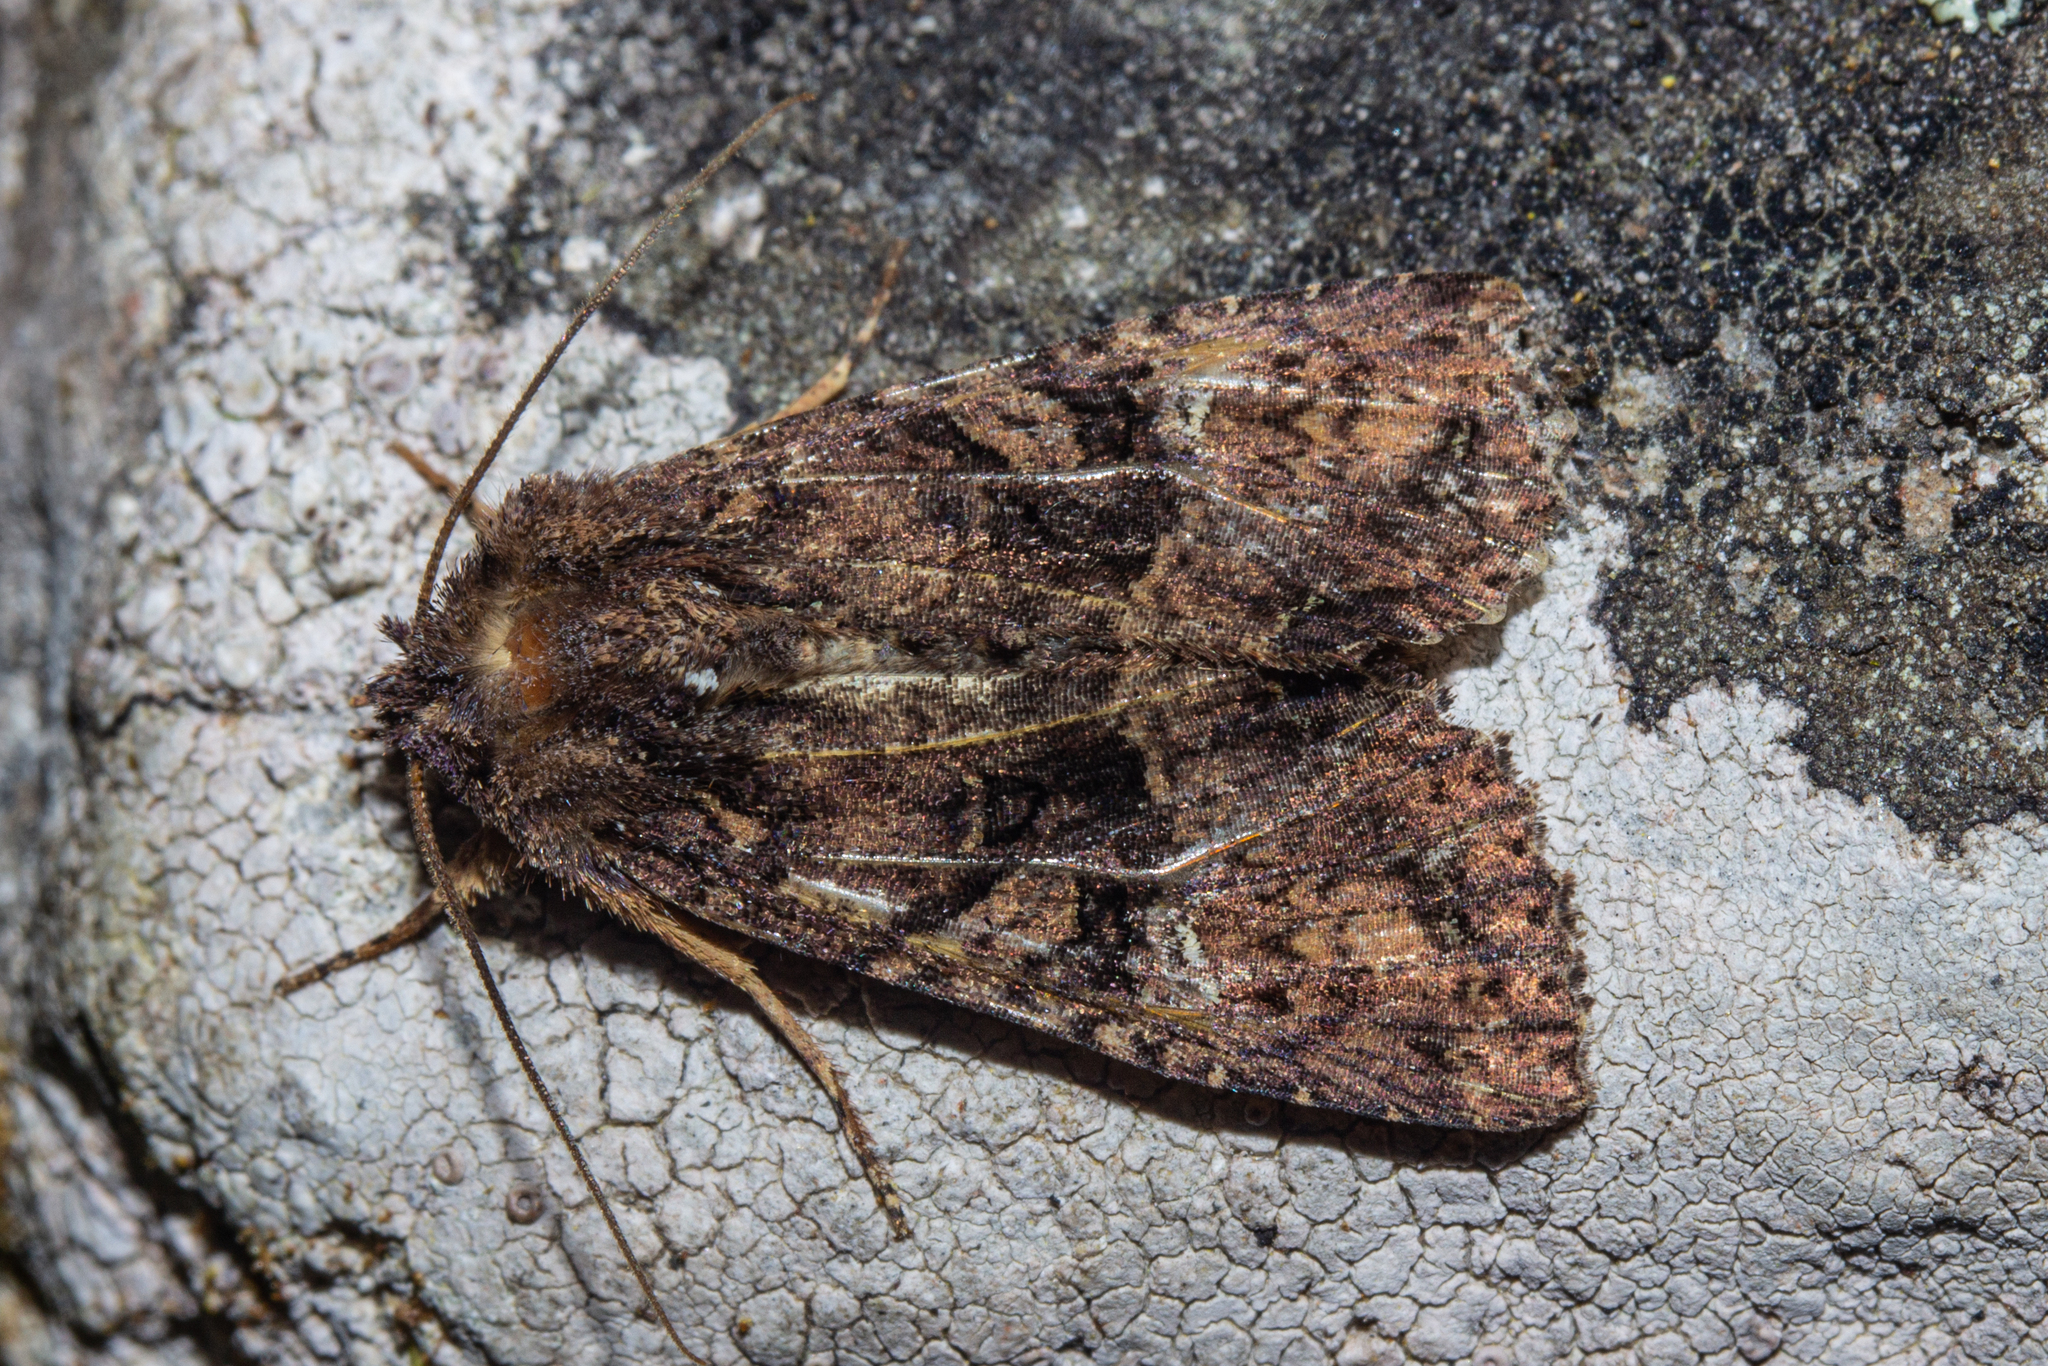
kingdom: Animalia
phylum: Arthropoda
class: Insecta
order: Lepidoptera
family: Noctuidae
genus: Meterana
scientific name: Meterana ochthistis
